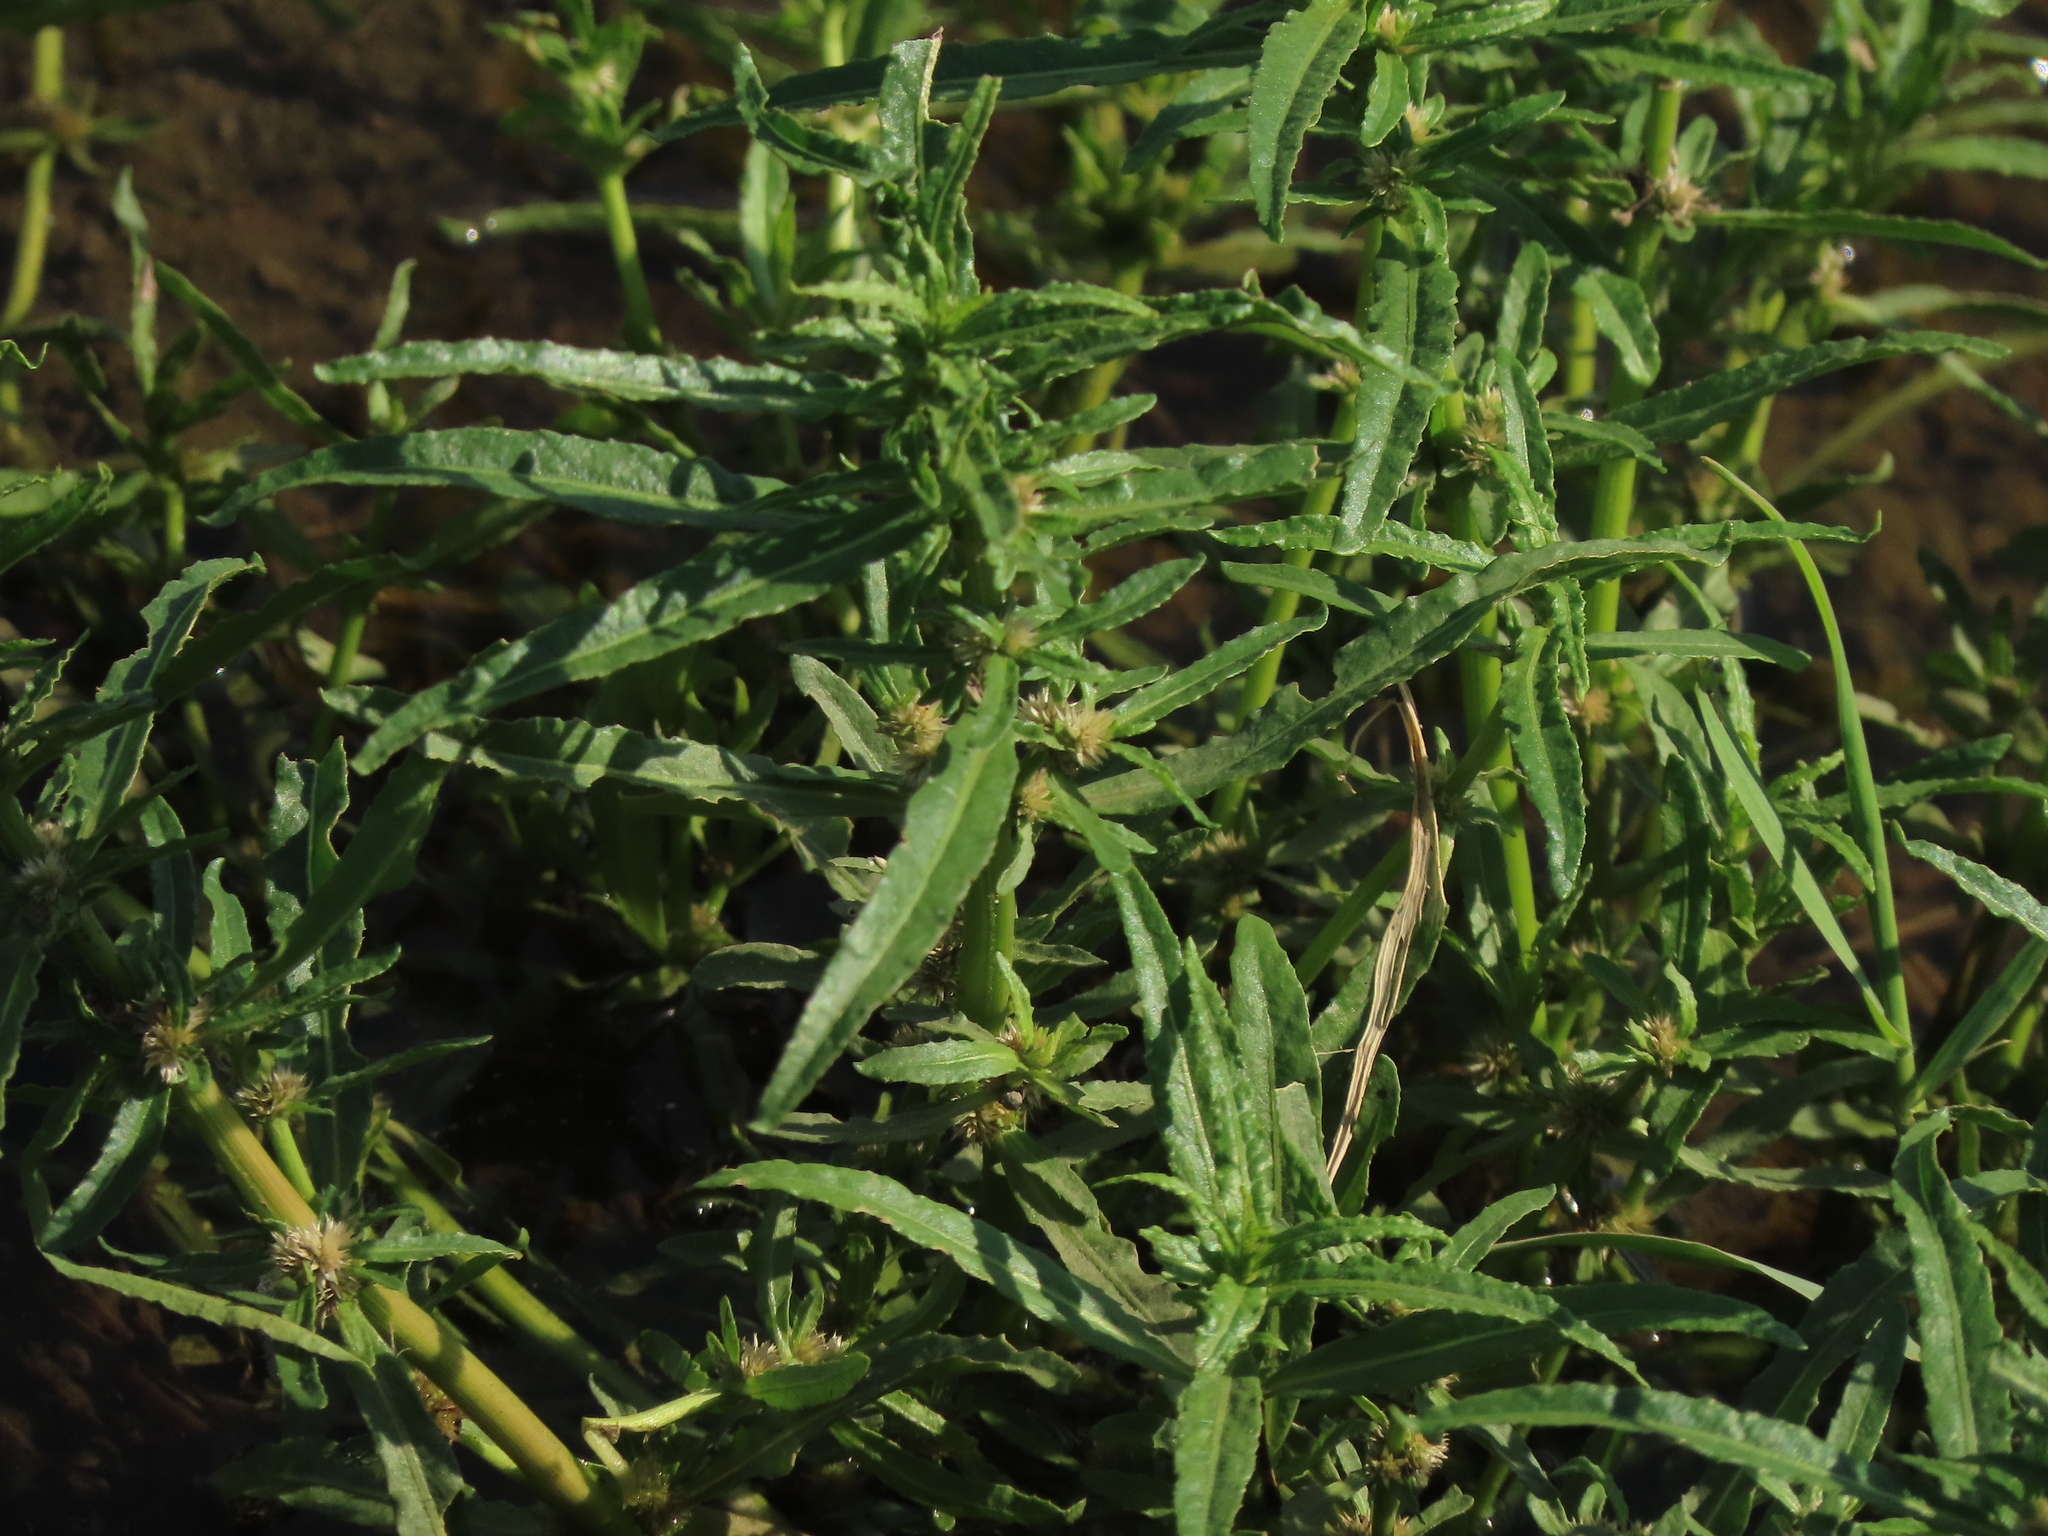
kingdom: Plantae
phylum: Tracheophyta
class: Magnoliopsida
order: Caryophyllales
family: Amaranthaceae
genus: Alternanthera
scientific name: Alternanthera sessilis
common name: Sessile joyweed
